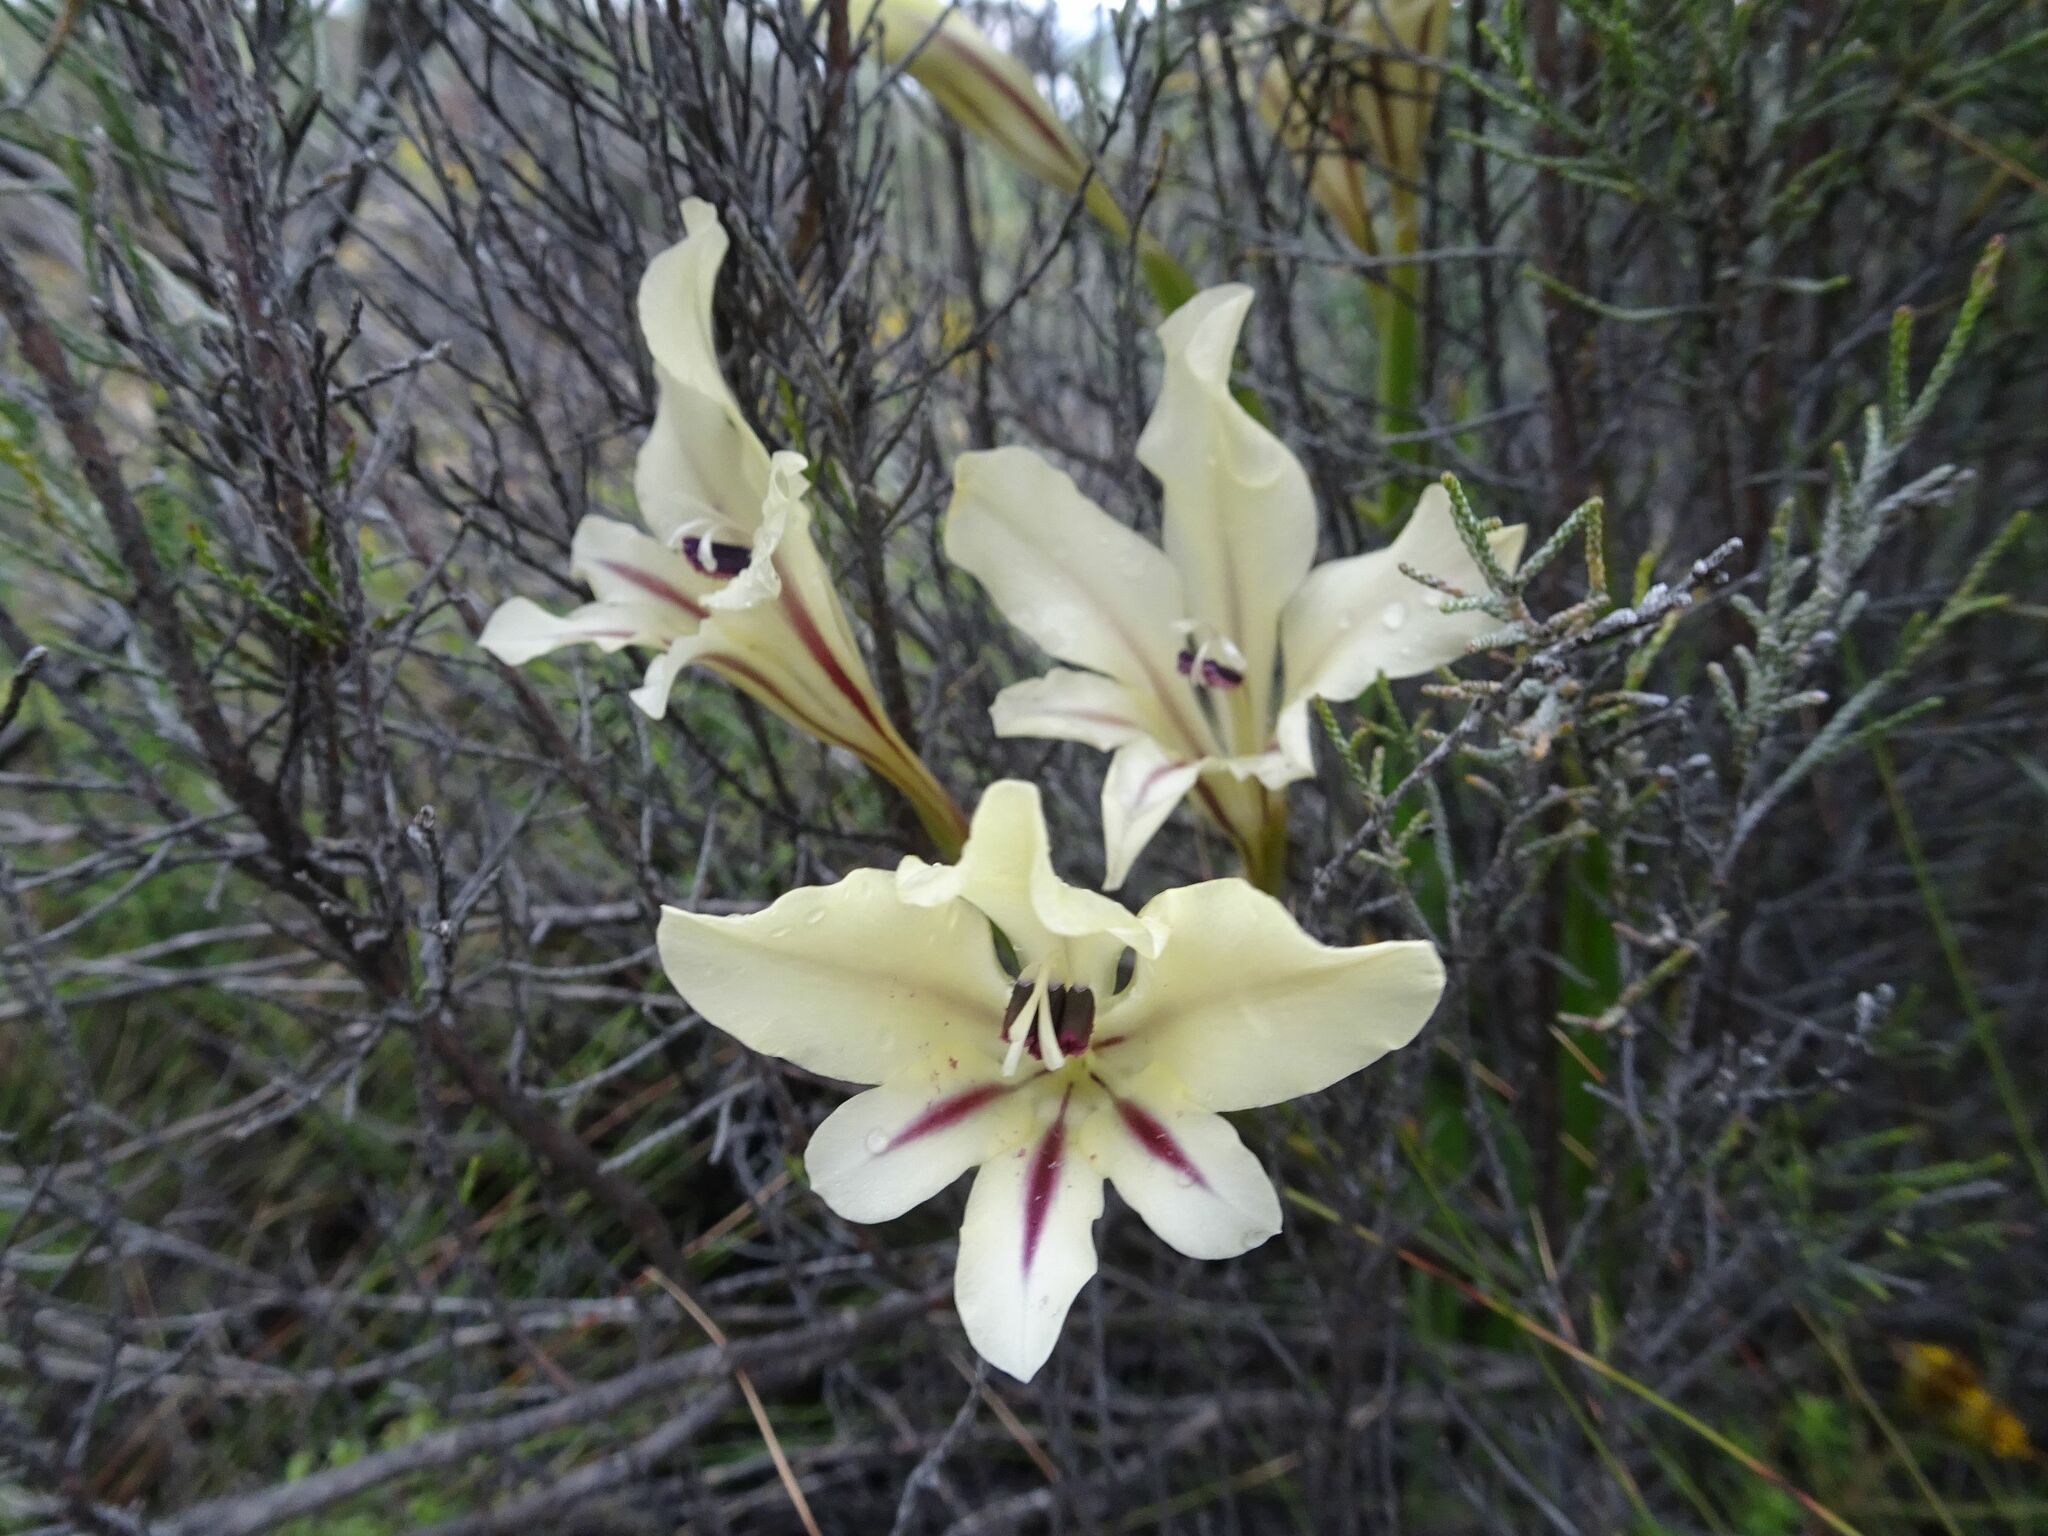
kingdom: Plantae
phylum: Tracheophyta
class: Liliopsida
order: Asparagales
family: Iridaceae
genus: Gladiolus
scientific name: Gladiolus floribundus
